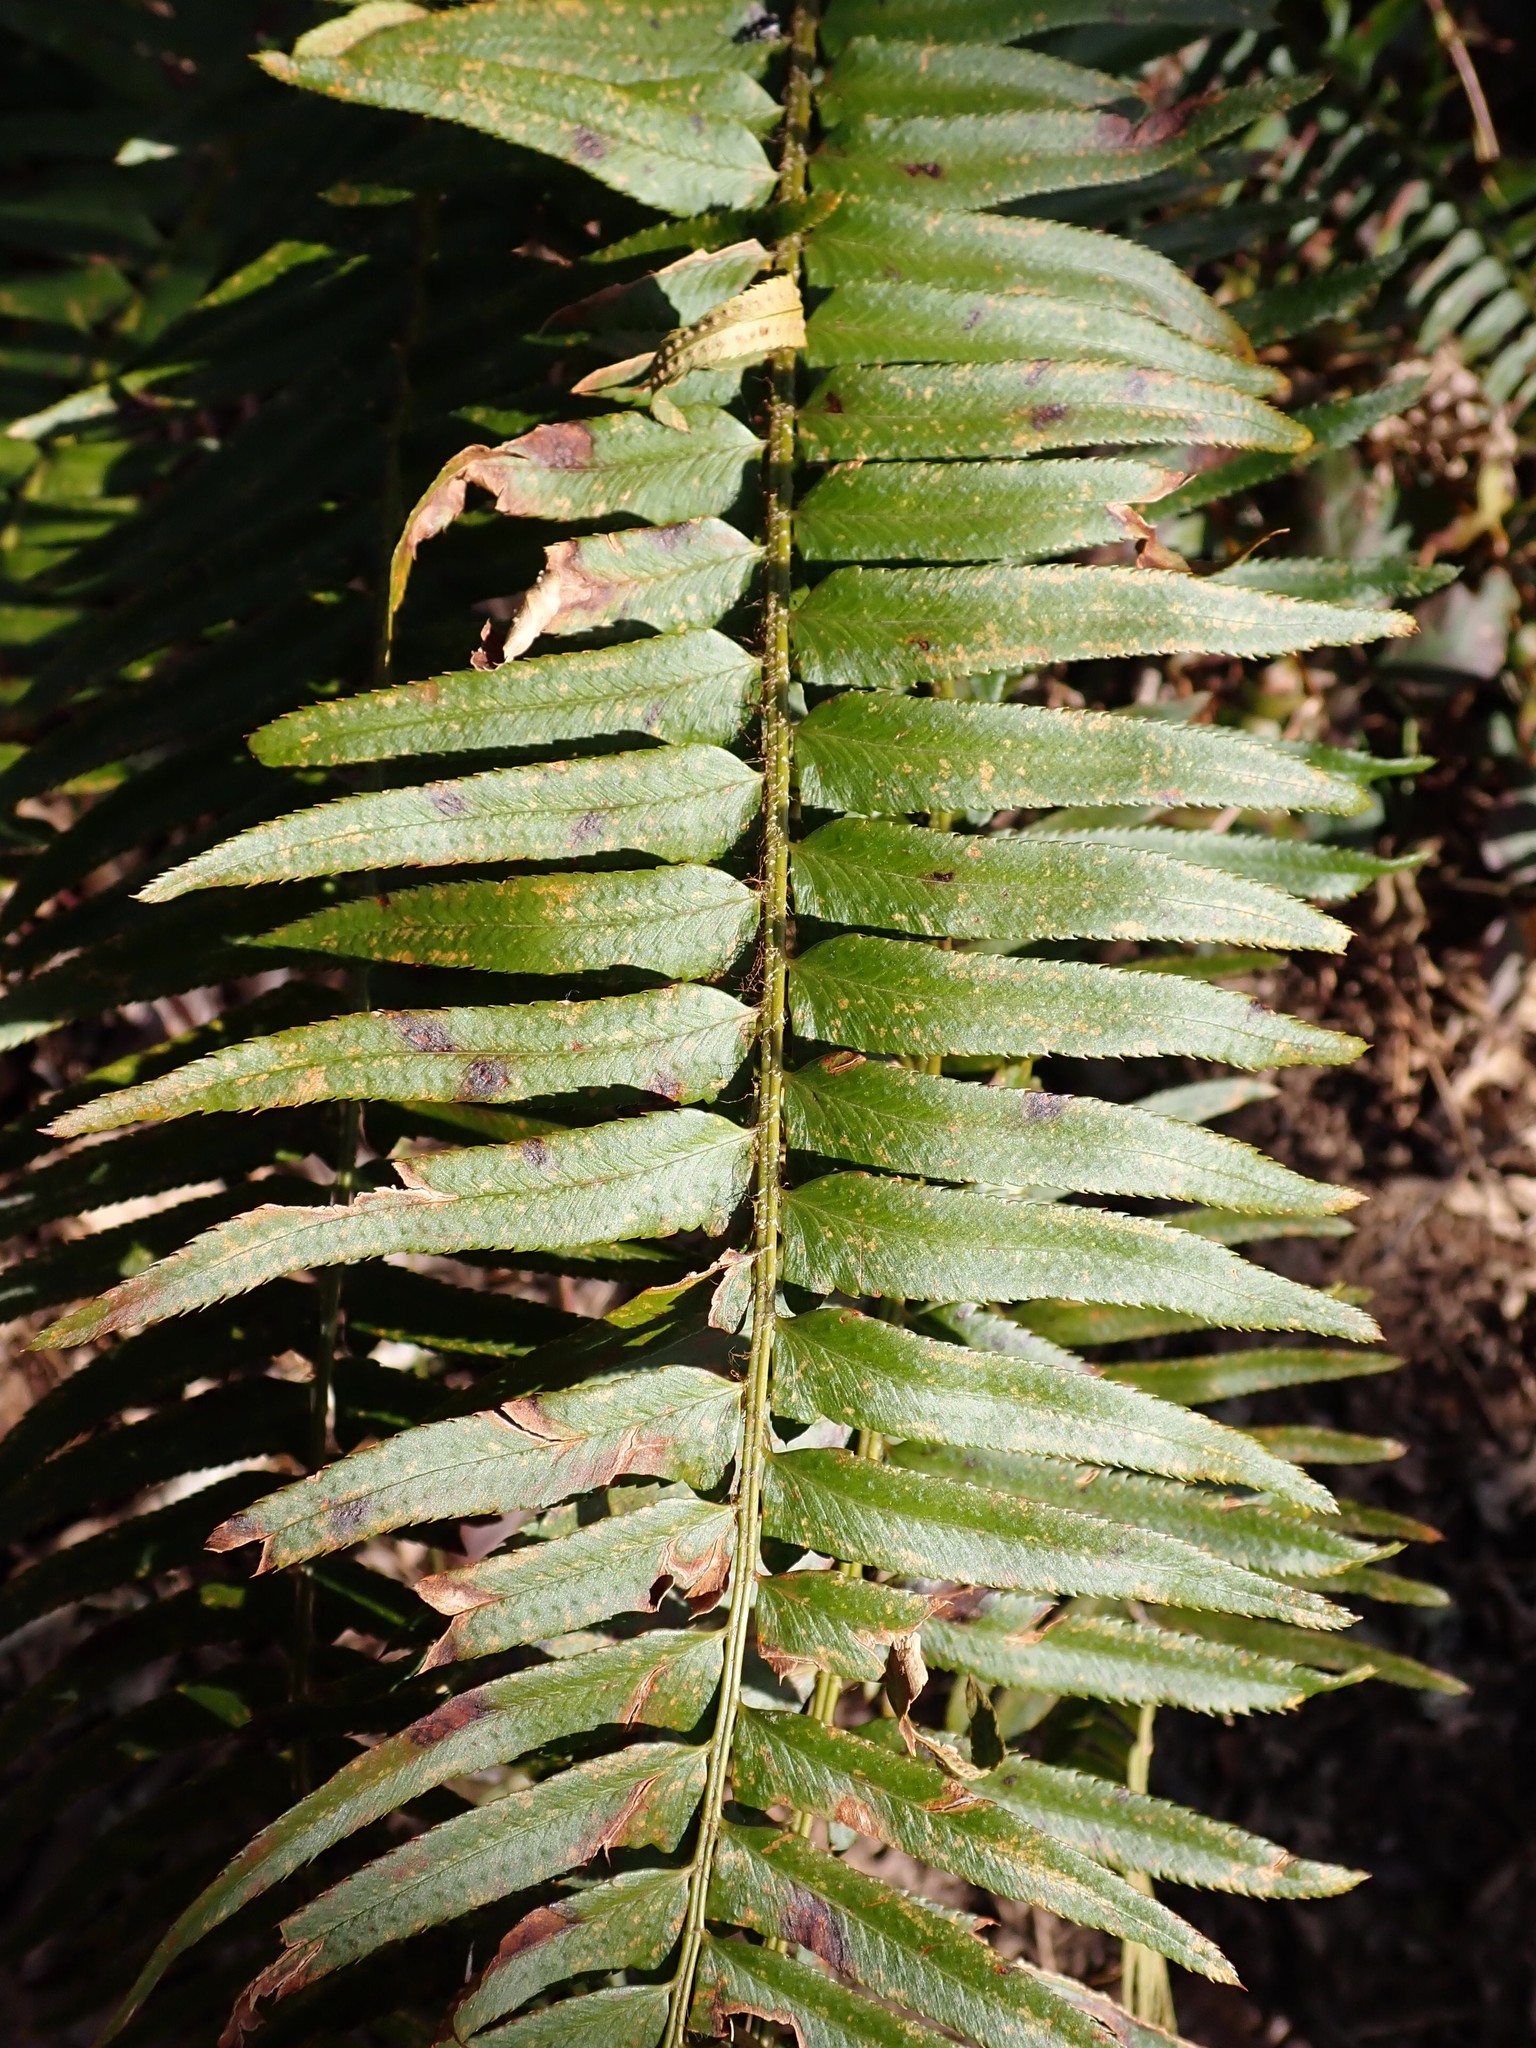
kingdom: Plantae
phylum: Tracheophyta
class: Polypodiopsida
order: Polypodiales
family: Dryopteridaceae
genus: Polystichum
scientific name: Polystichum munitum
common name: Western sword-fern
